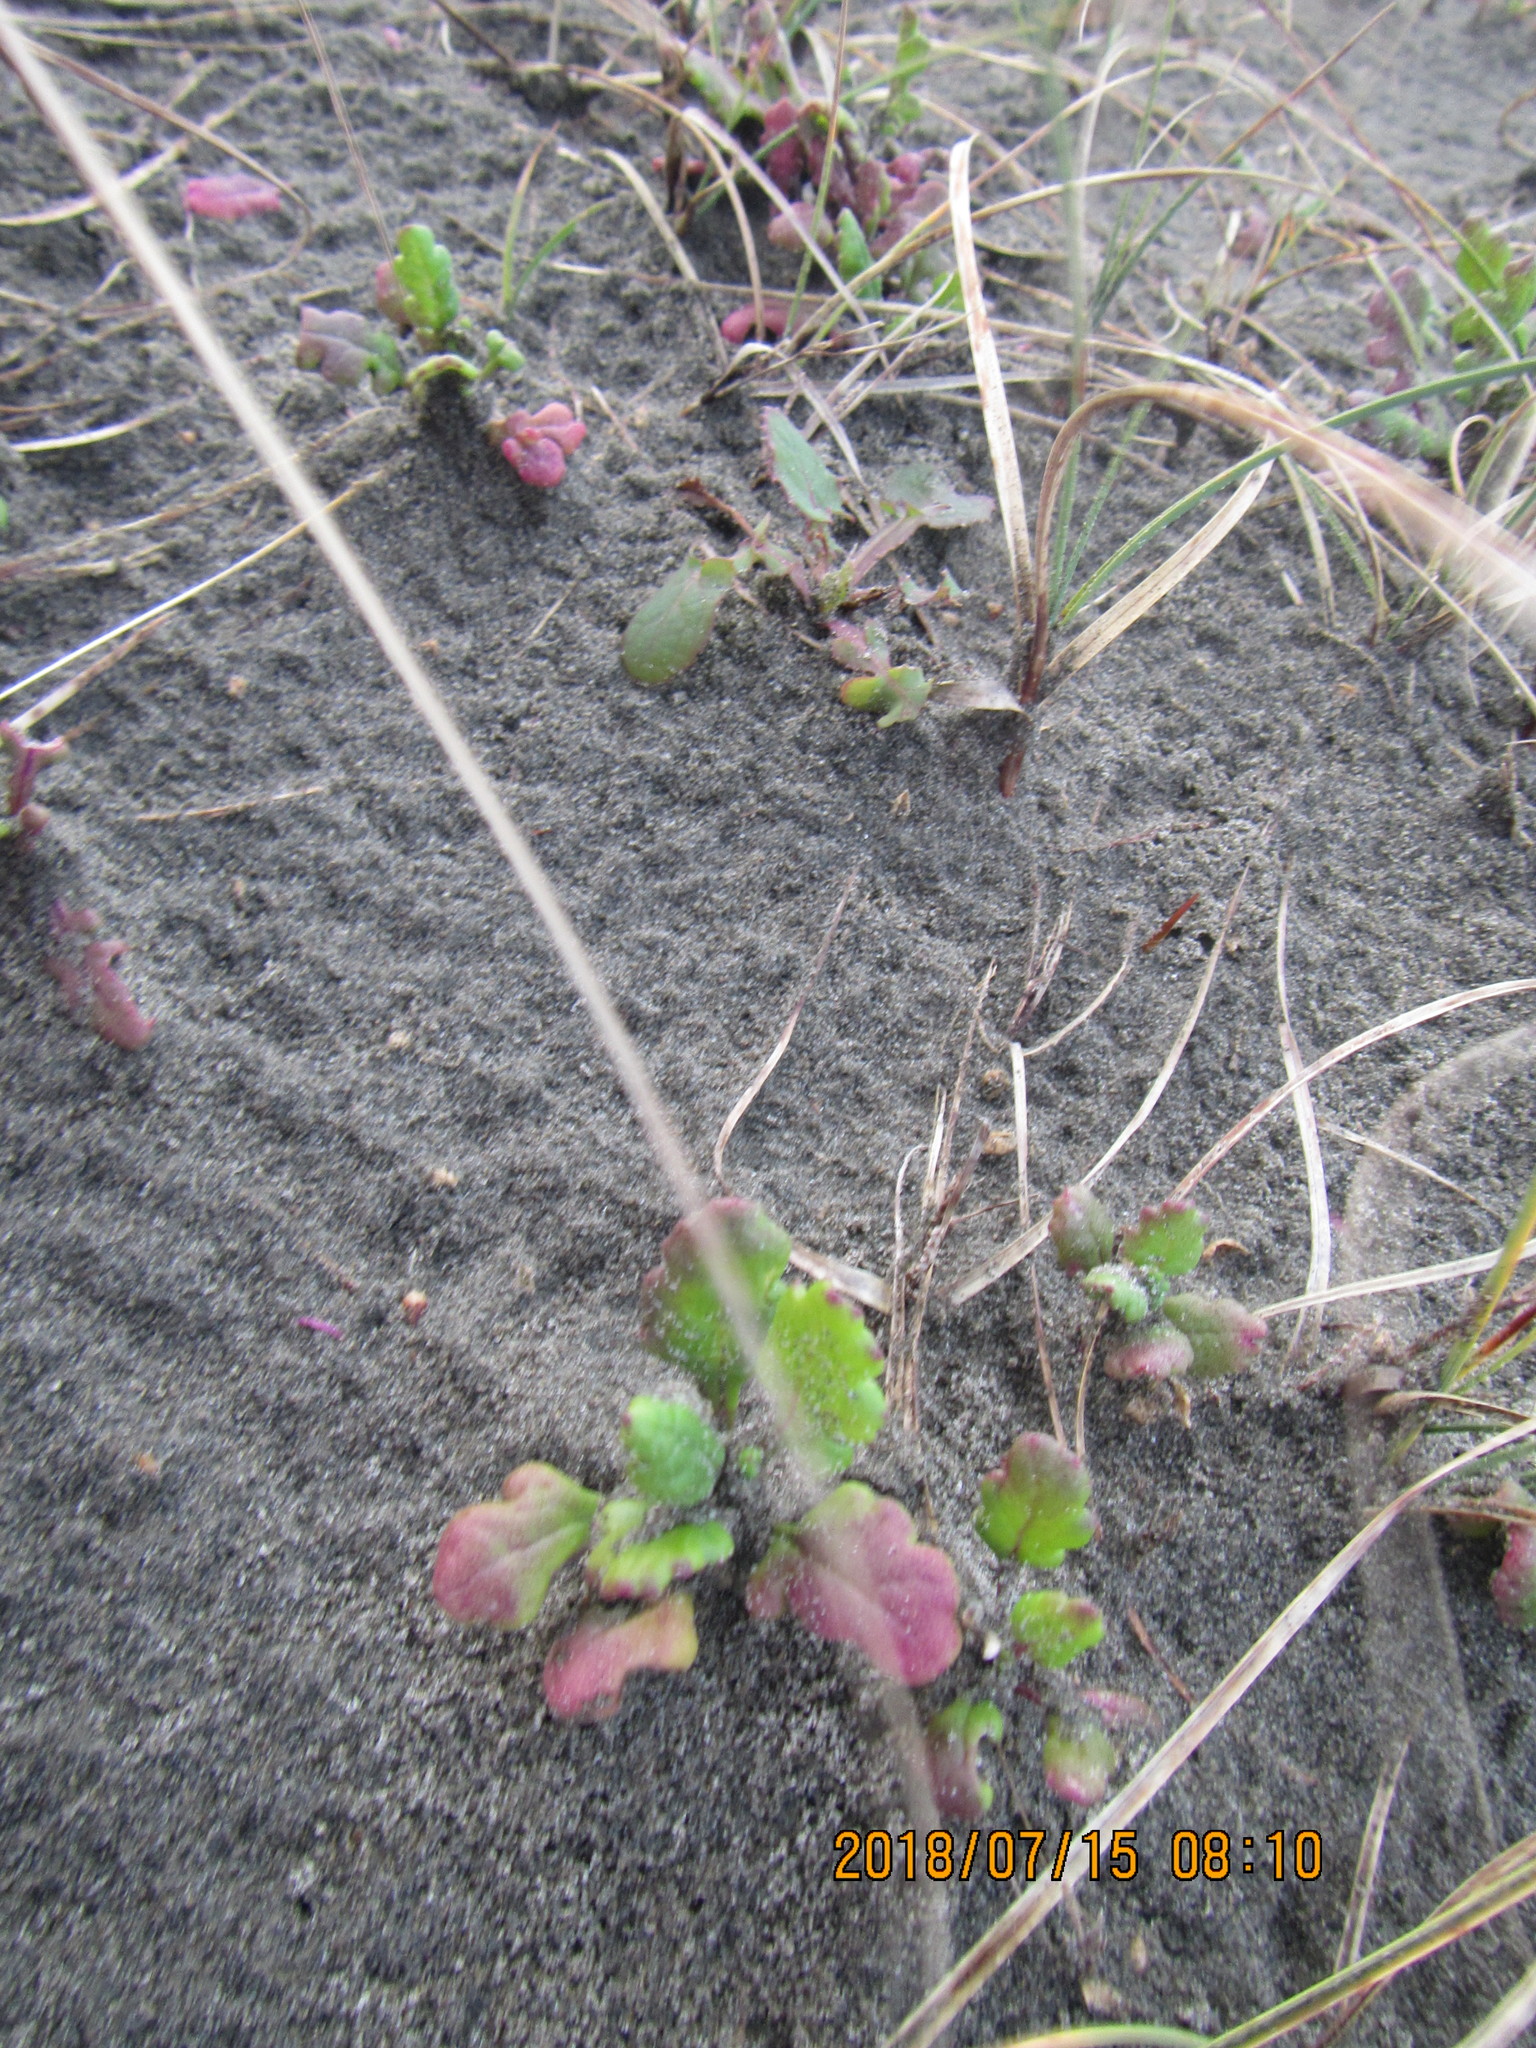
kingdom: Plantae
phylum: Tracheophyta
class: Magnoliopsida
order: Asterales
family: Asteraceae
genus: Senecio
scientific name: Senecio elegans
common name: Purple groundsel
